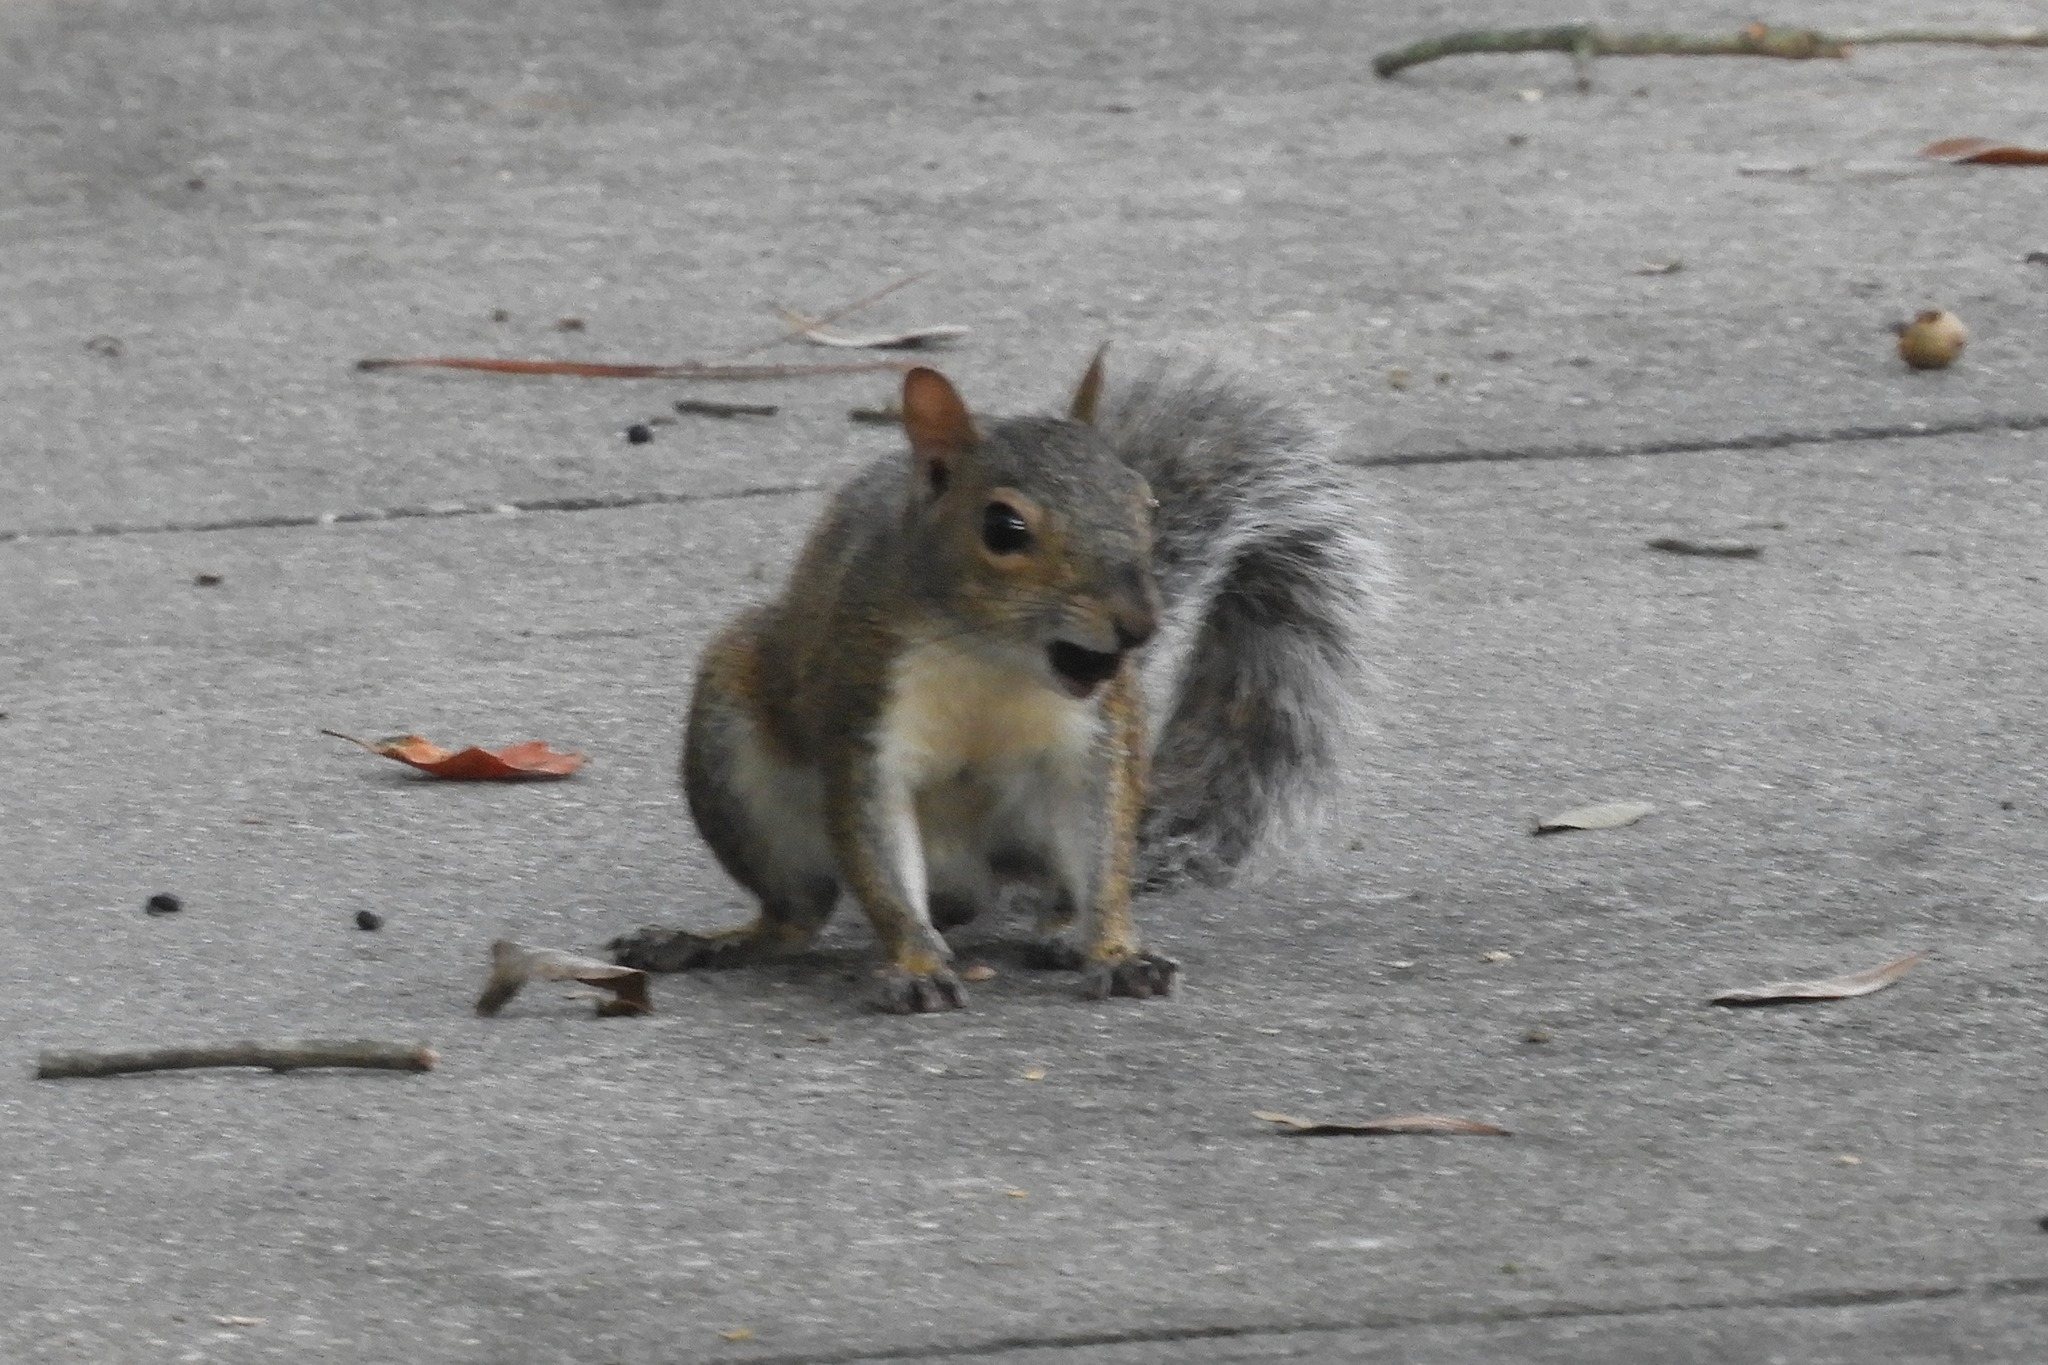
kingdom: Animalia
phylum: Chordata
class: Mammalia
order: Rodentia
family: Sciuridae
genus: Sciurus
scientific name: Sciurus carolinensis
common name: Eastern gray squirrel
